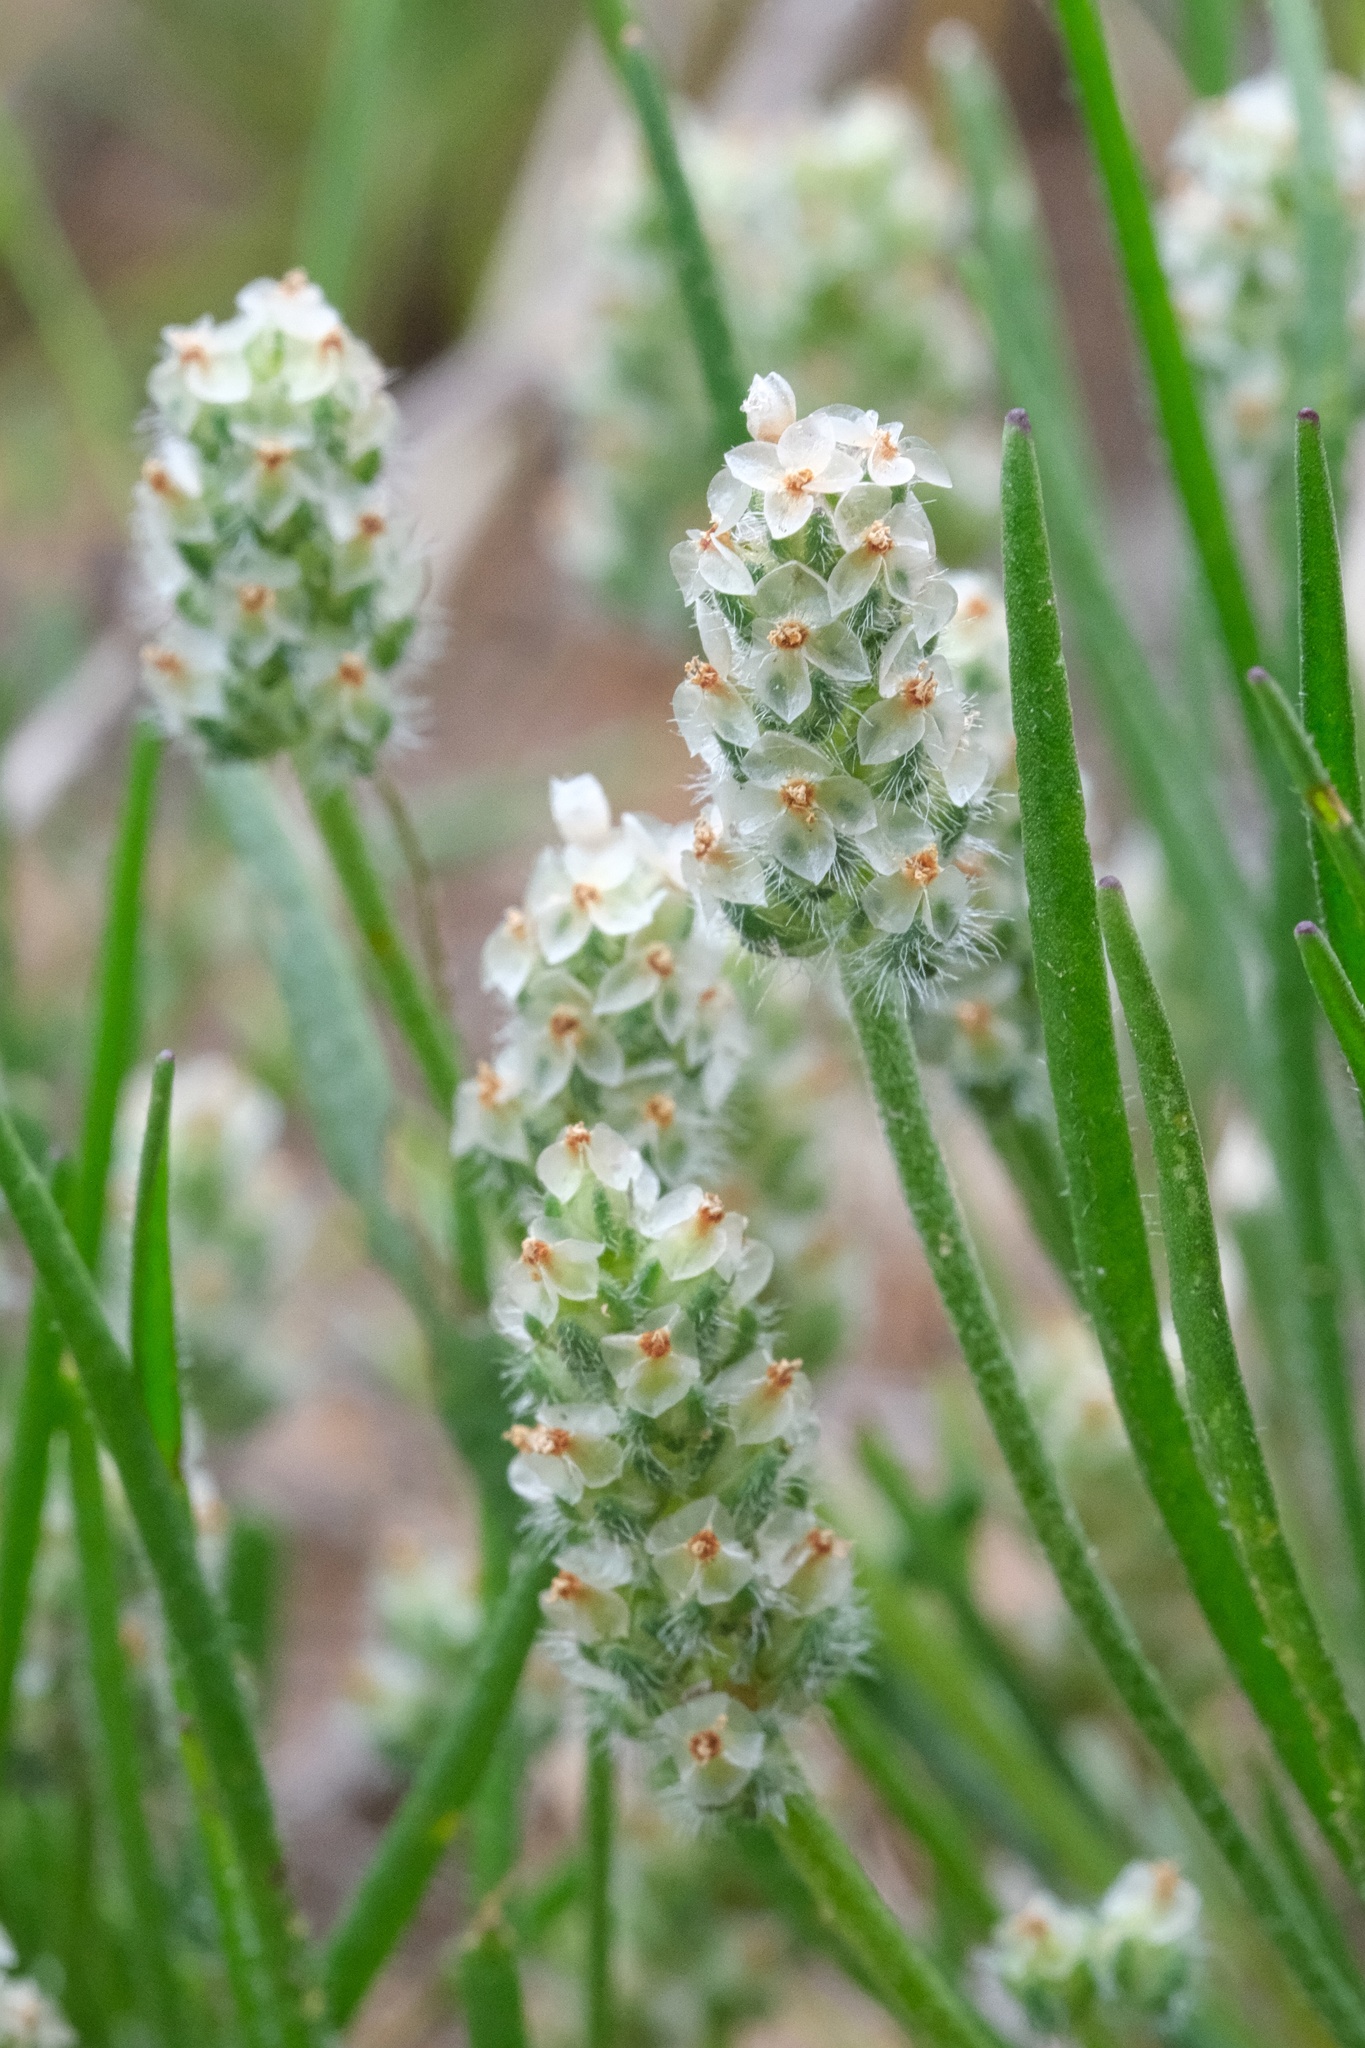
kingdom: Plantae
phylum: Tracheophyta
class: Magnoliopsida
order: Lamiales
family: Plantaginaceae
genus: Plantago
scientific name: Plantago erecta
